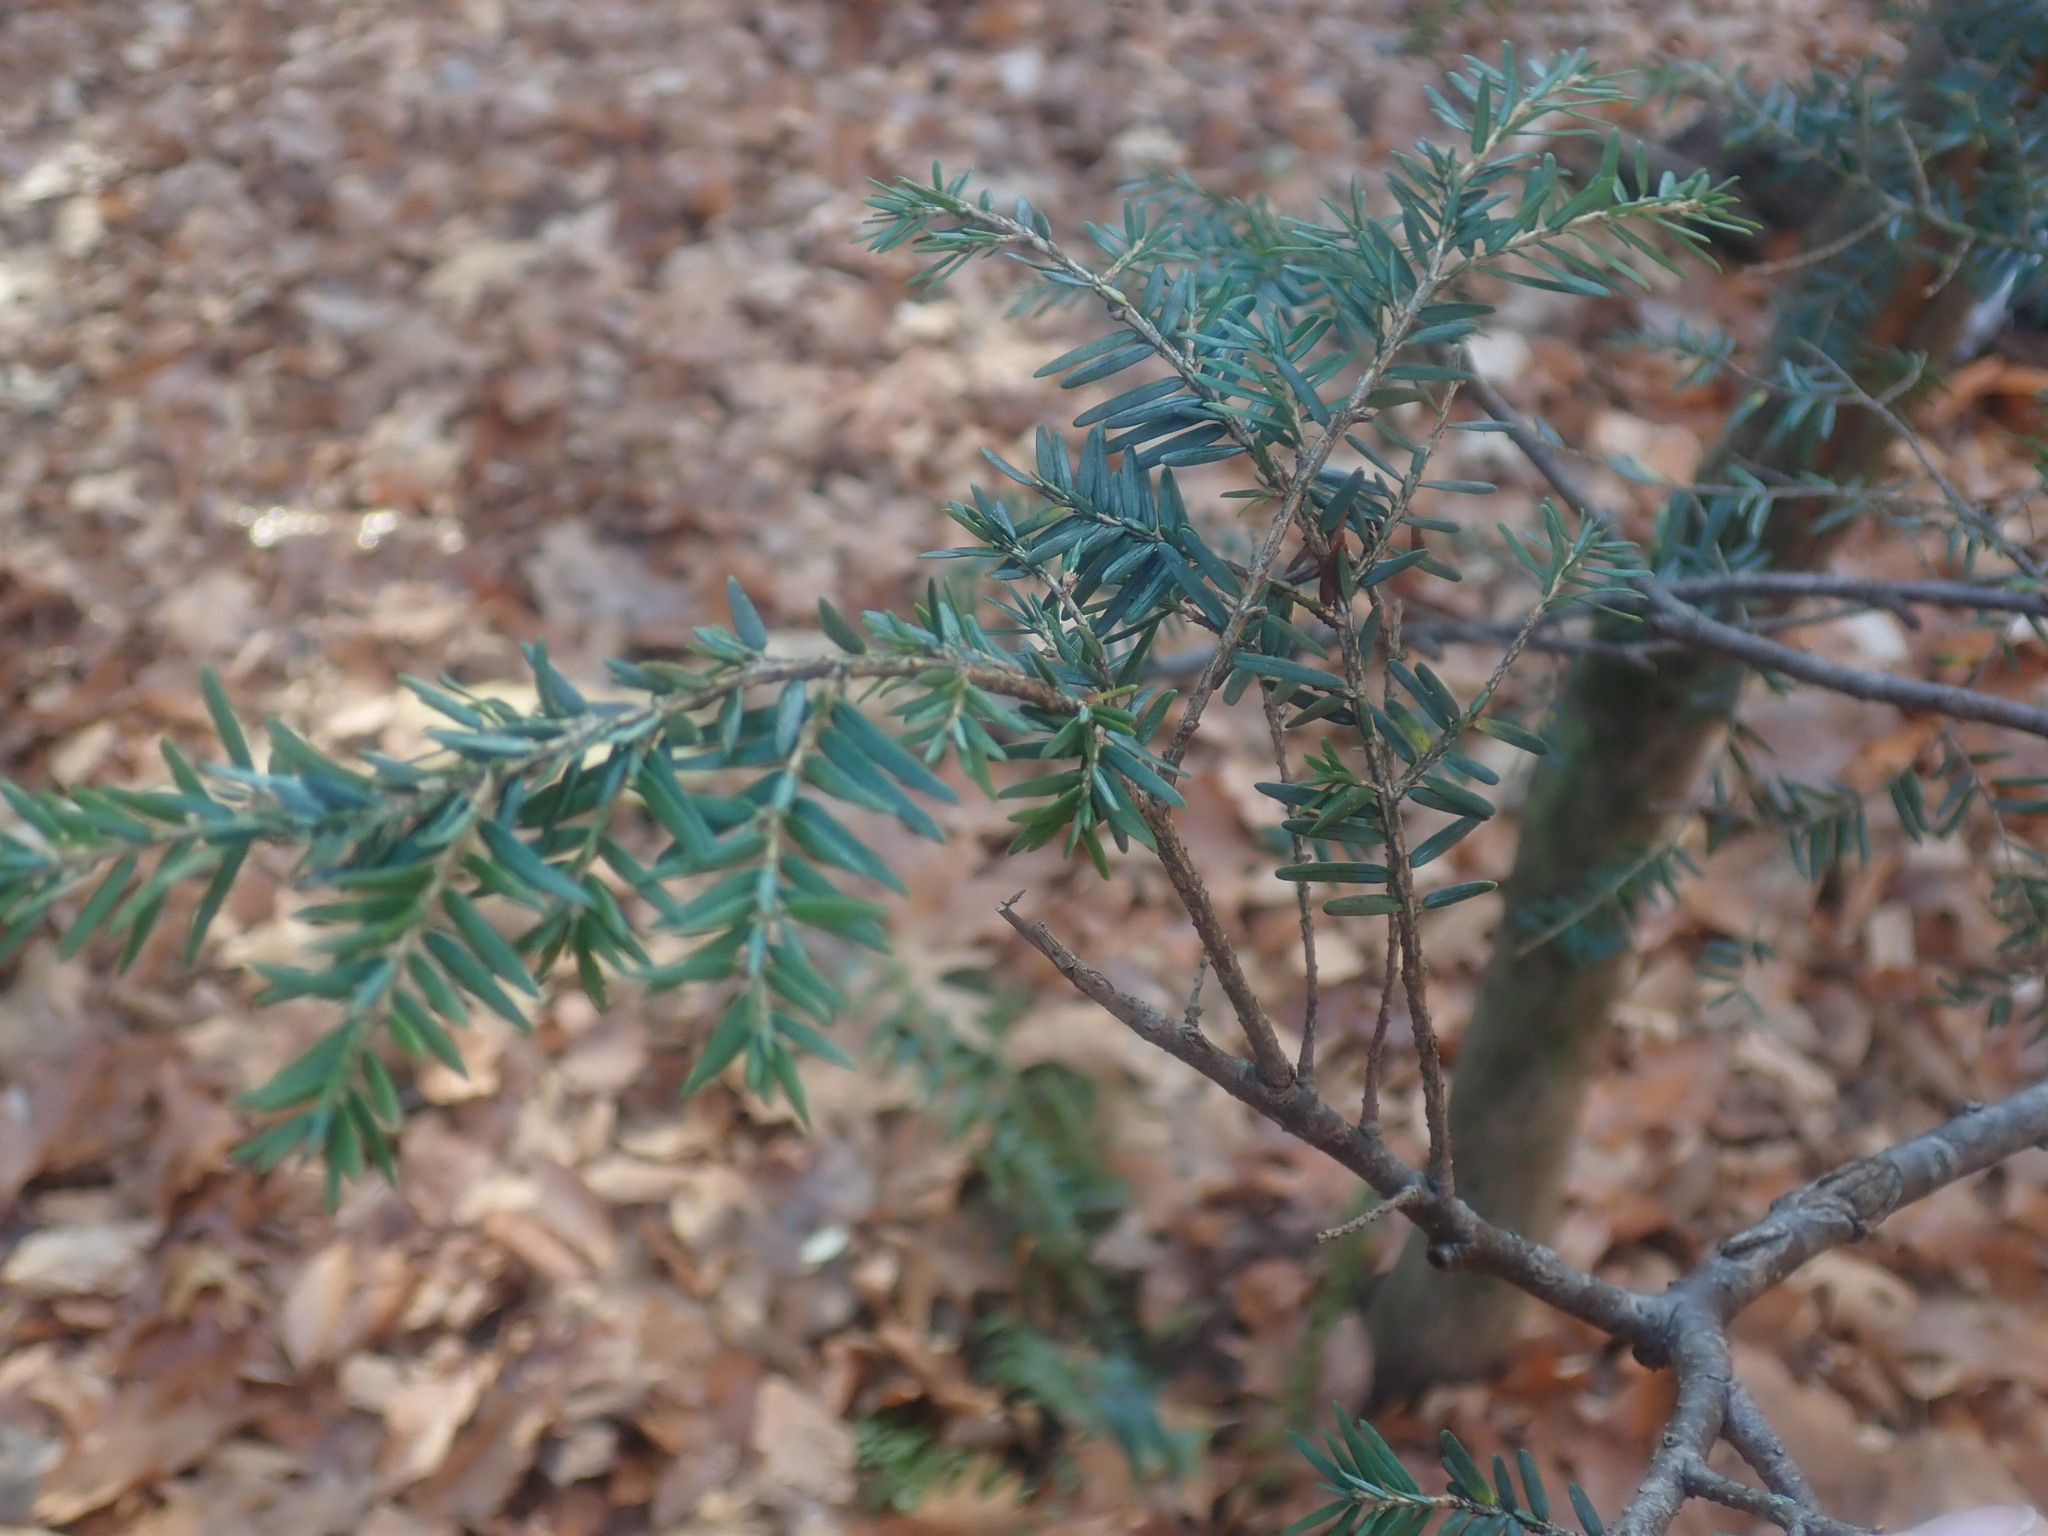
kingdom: Plantae
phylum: Tracheophyta
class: Pinopsida
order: Pinales
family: Pinaceae
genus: Tsuga
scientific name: Tsuga canadensis
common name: Eastern hemlock
